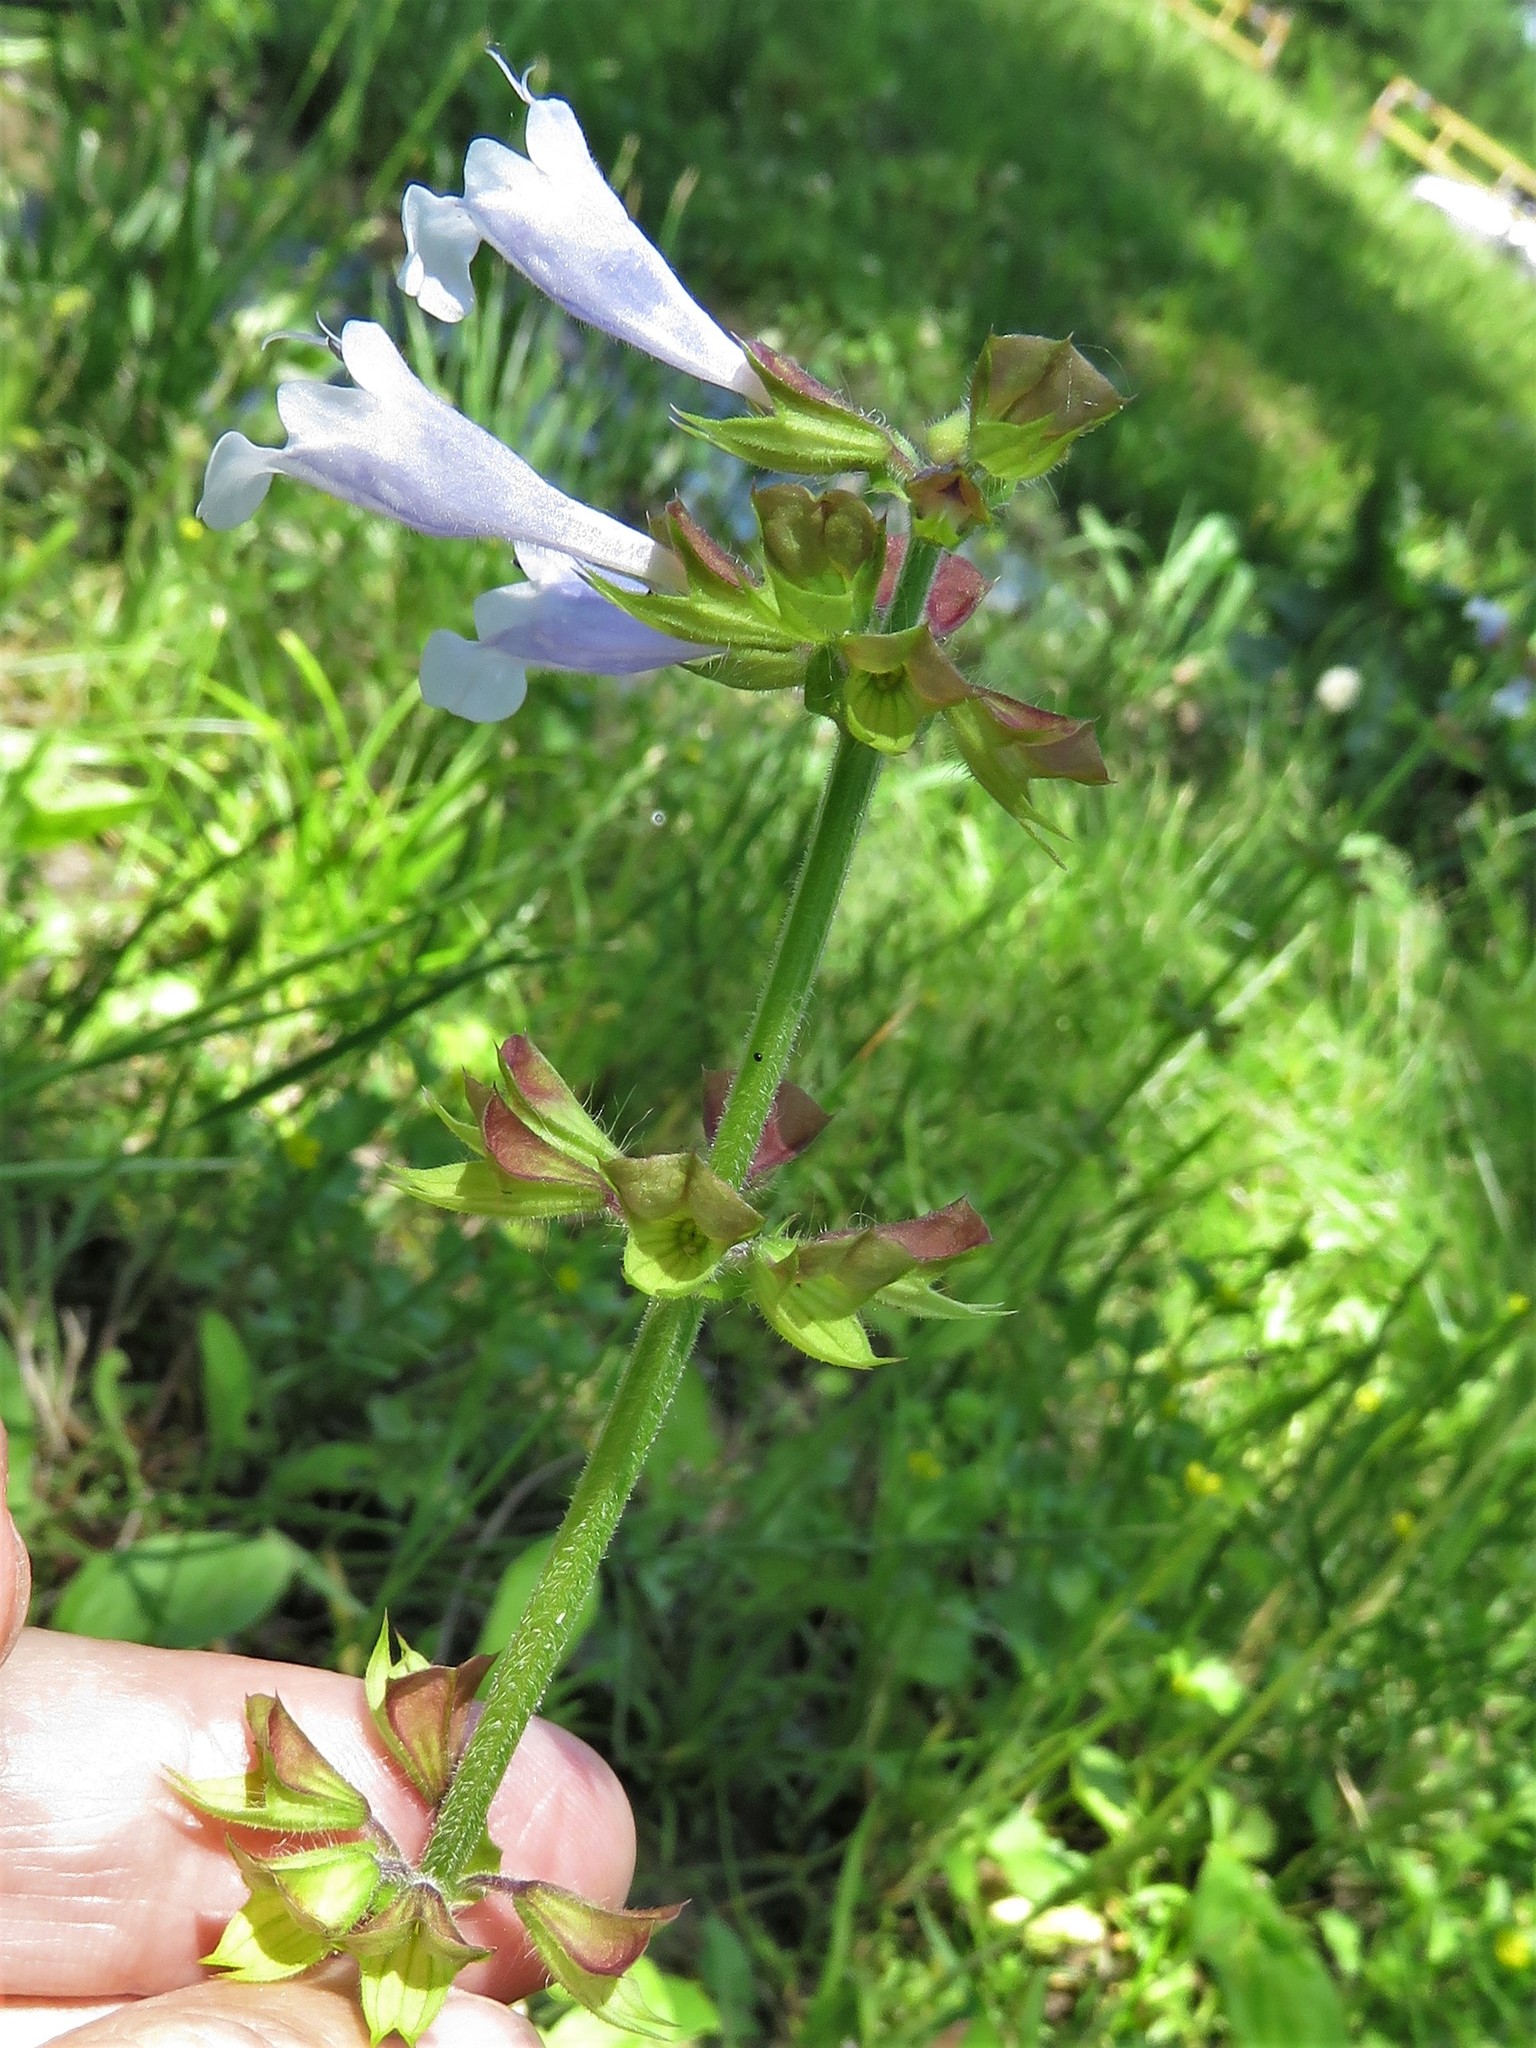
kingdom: Plantae
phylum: Tracheophyta
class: Magnoliopsida
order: Lamiales
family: Lamiaceae
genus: Salvia
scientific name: Salvia lyrata
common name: Cancerweed
